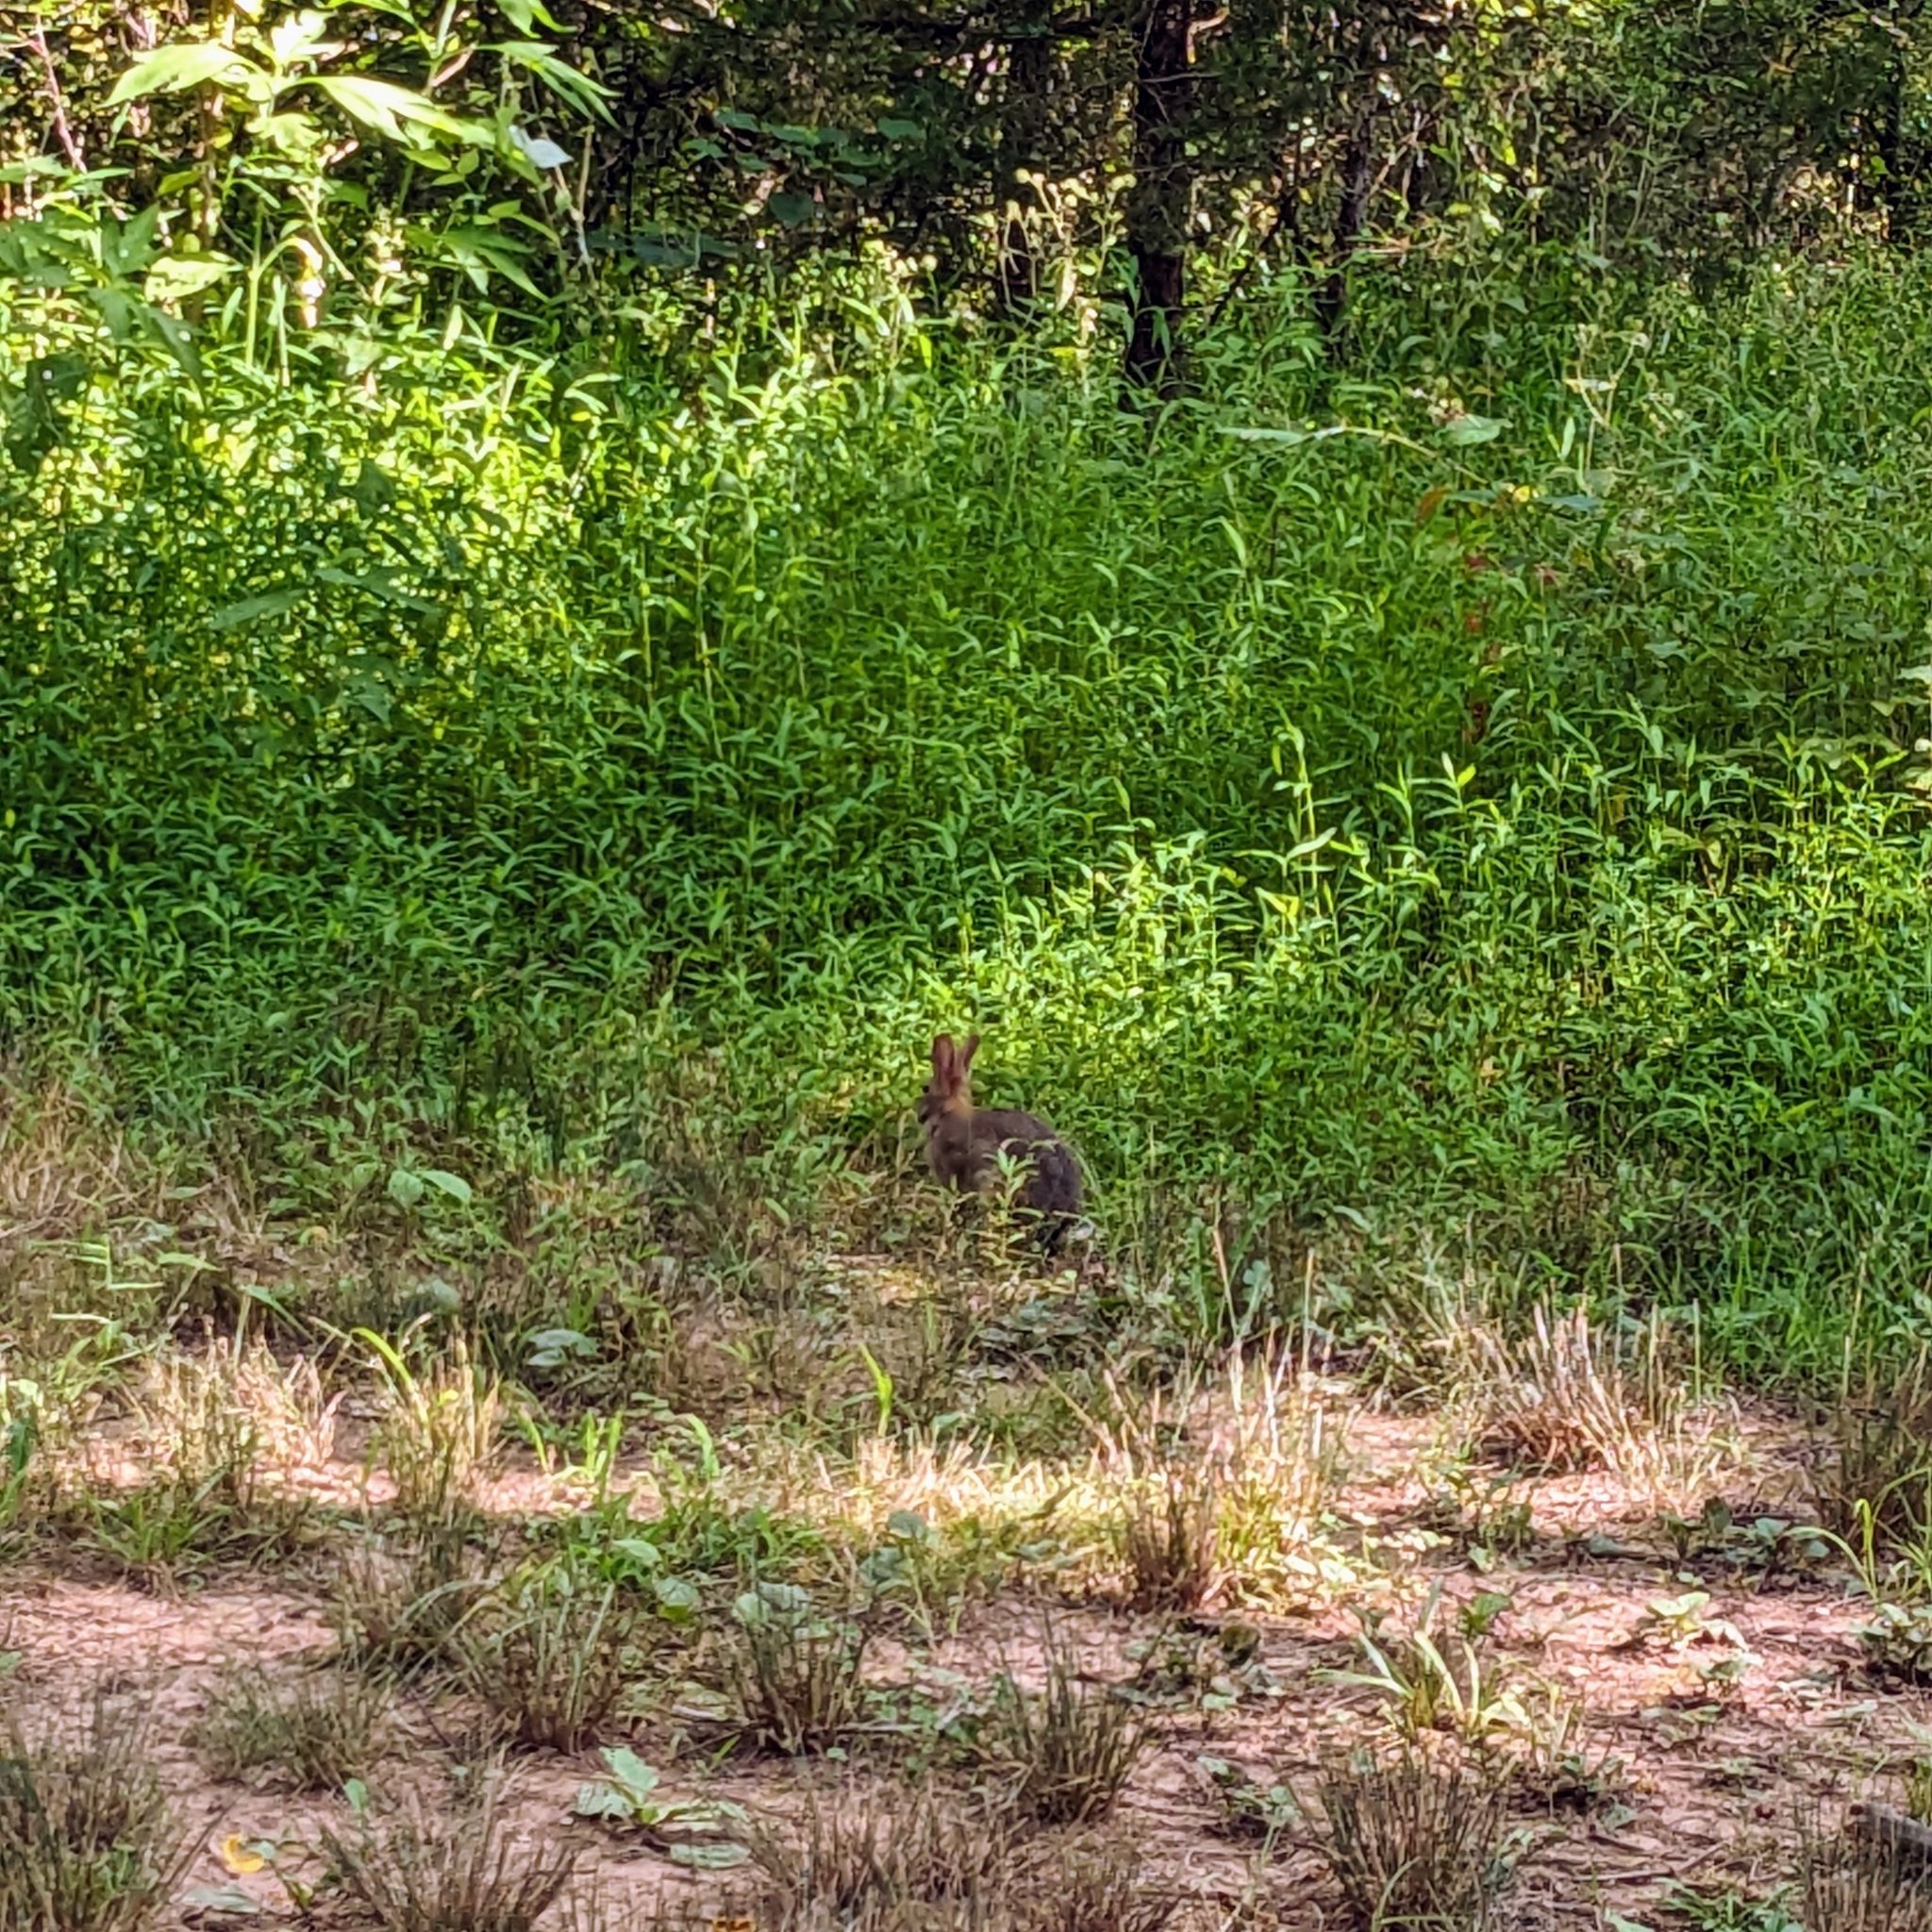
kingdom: Animalia
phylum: Chordata
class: Mammalia
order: Lagomorpha
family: Leporidae
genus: Sylvilagus
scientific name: Sylvilagus floridanus
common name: Eastern cottontail
